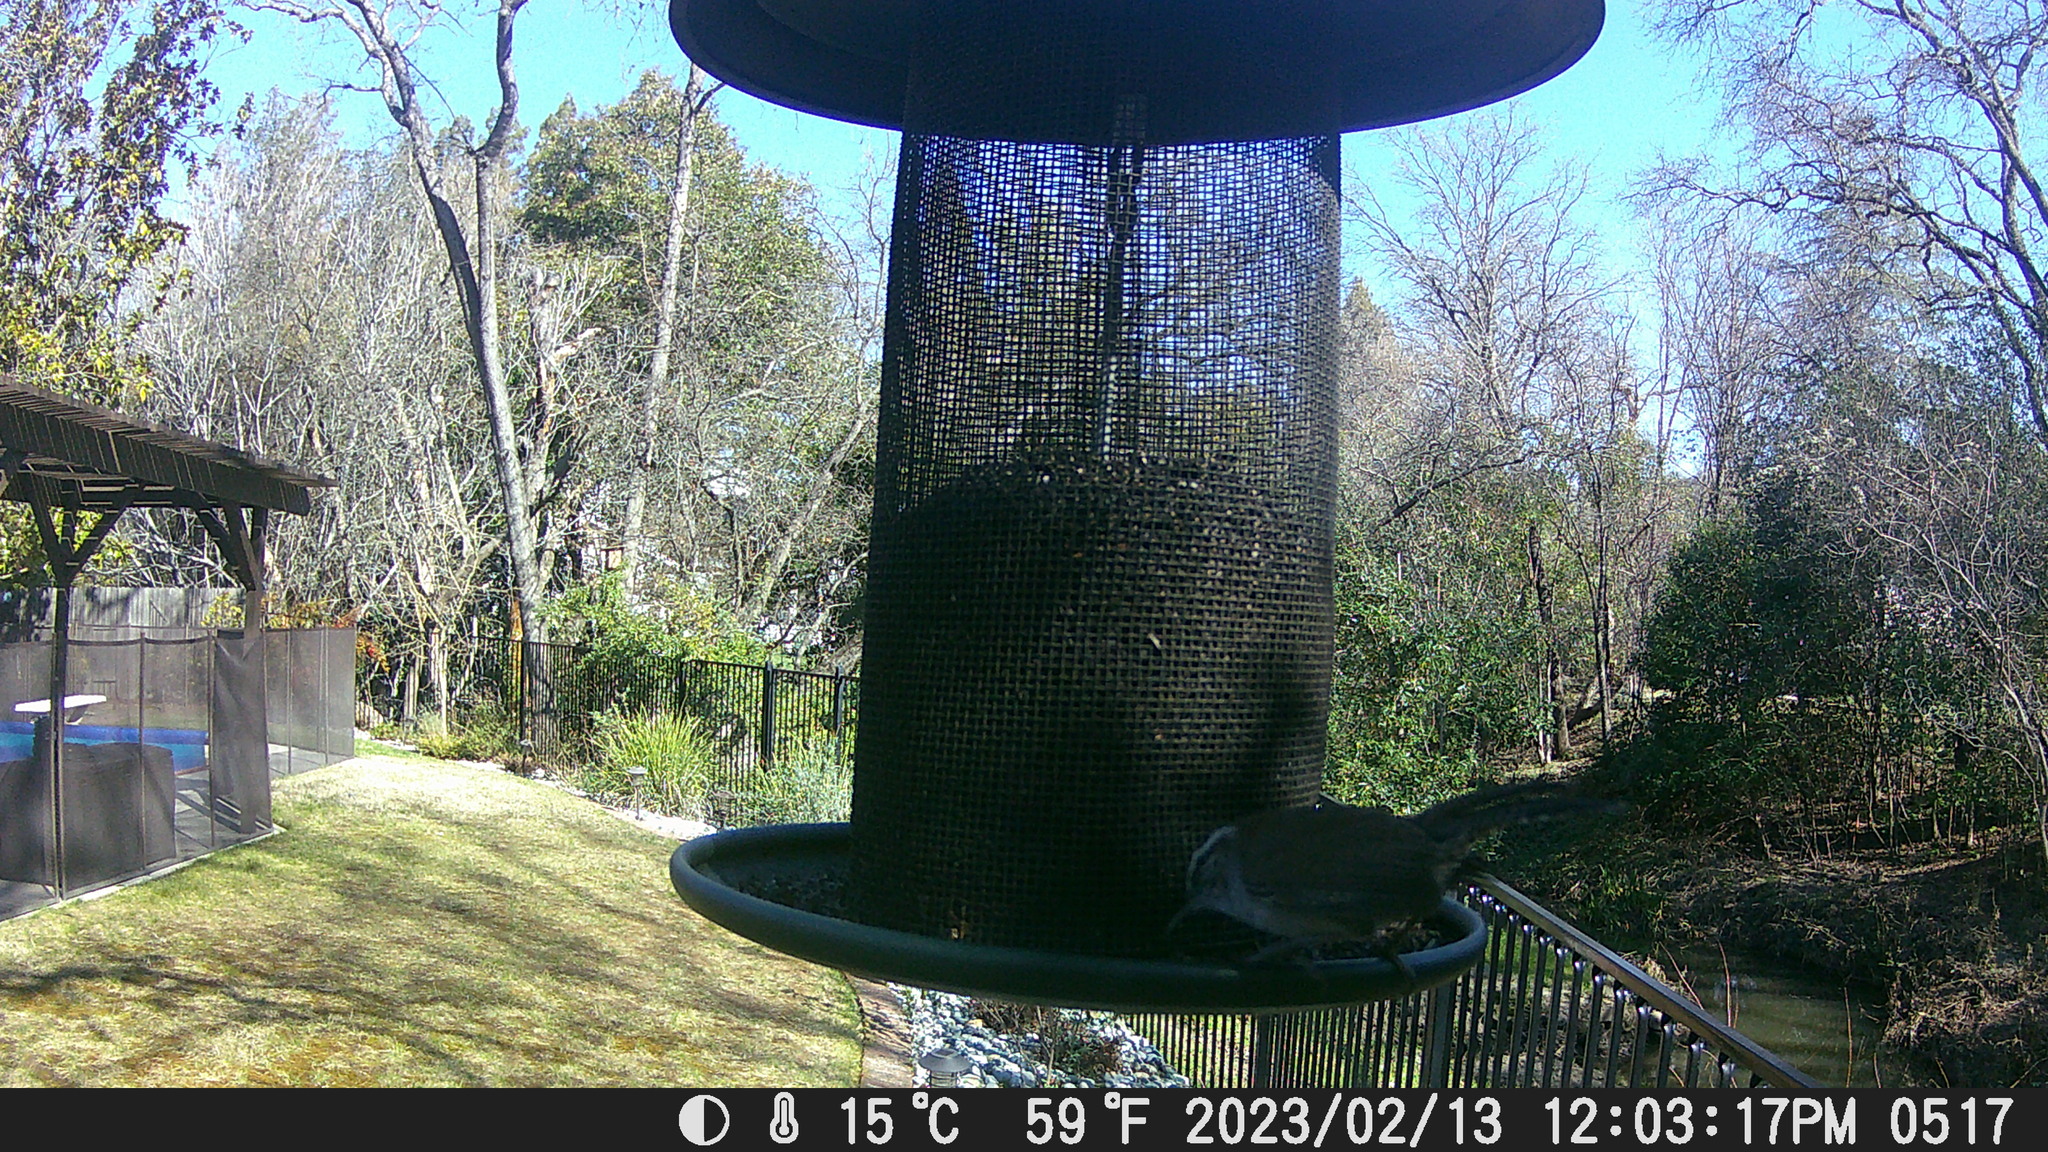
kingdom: Animalia
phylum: Chordata
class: Aves
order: Passeriformes
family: Troglodytidae
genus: Thryomanes
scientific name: Thryomanes bewickii
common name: Bewick's wren
